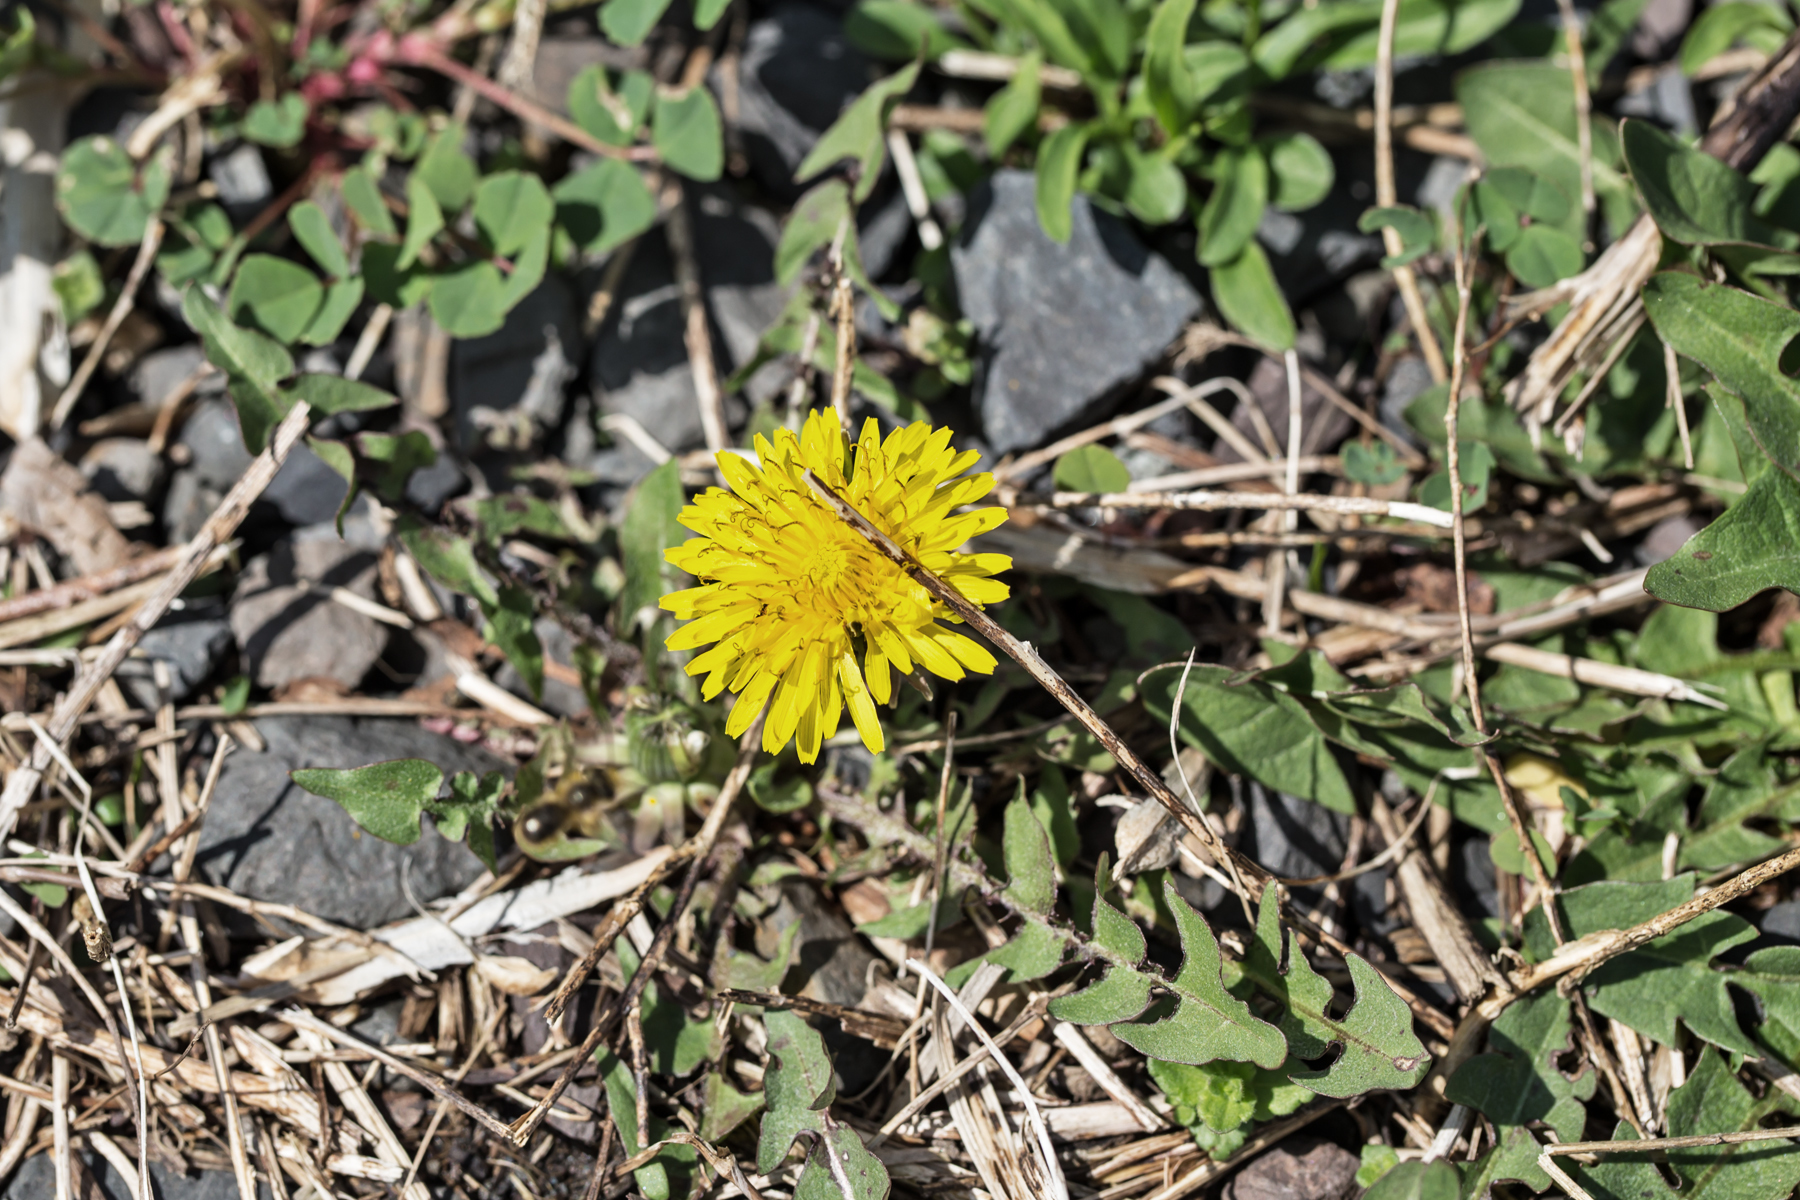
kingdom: Plantae
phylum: Tracheophyta
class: Magnoliopsida
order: Asterales
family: Asteraceae
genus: Taraxacum
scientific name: Taraxacum
